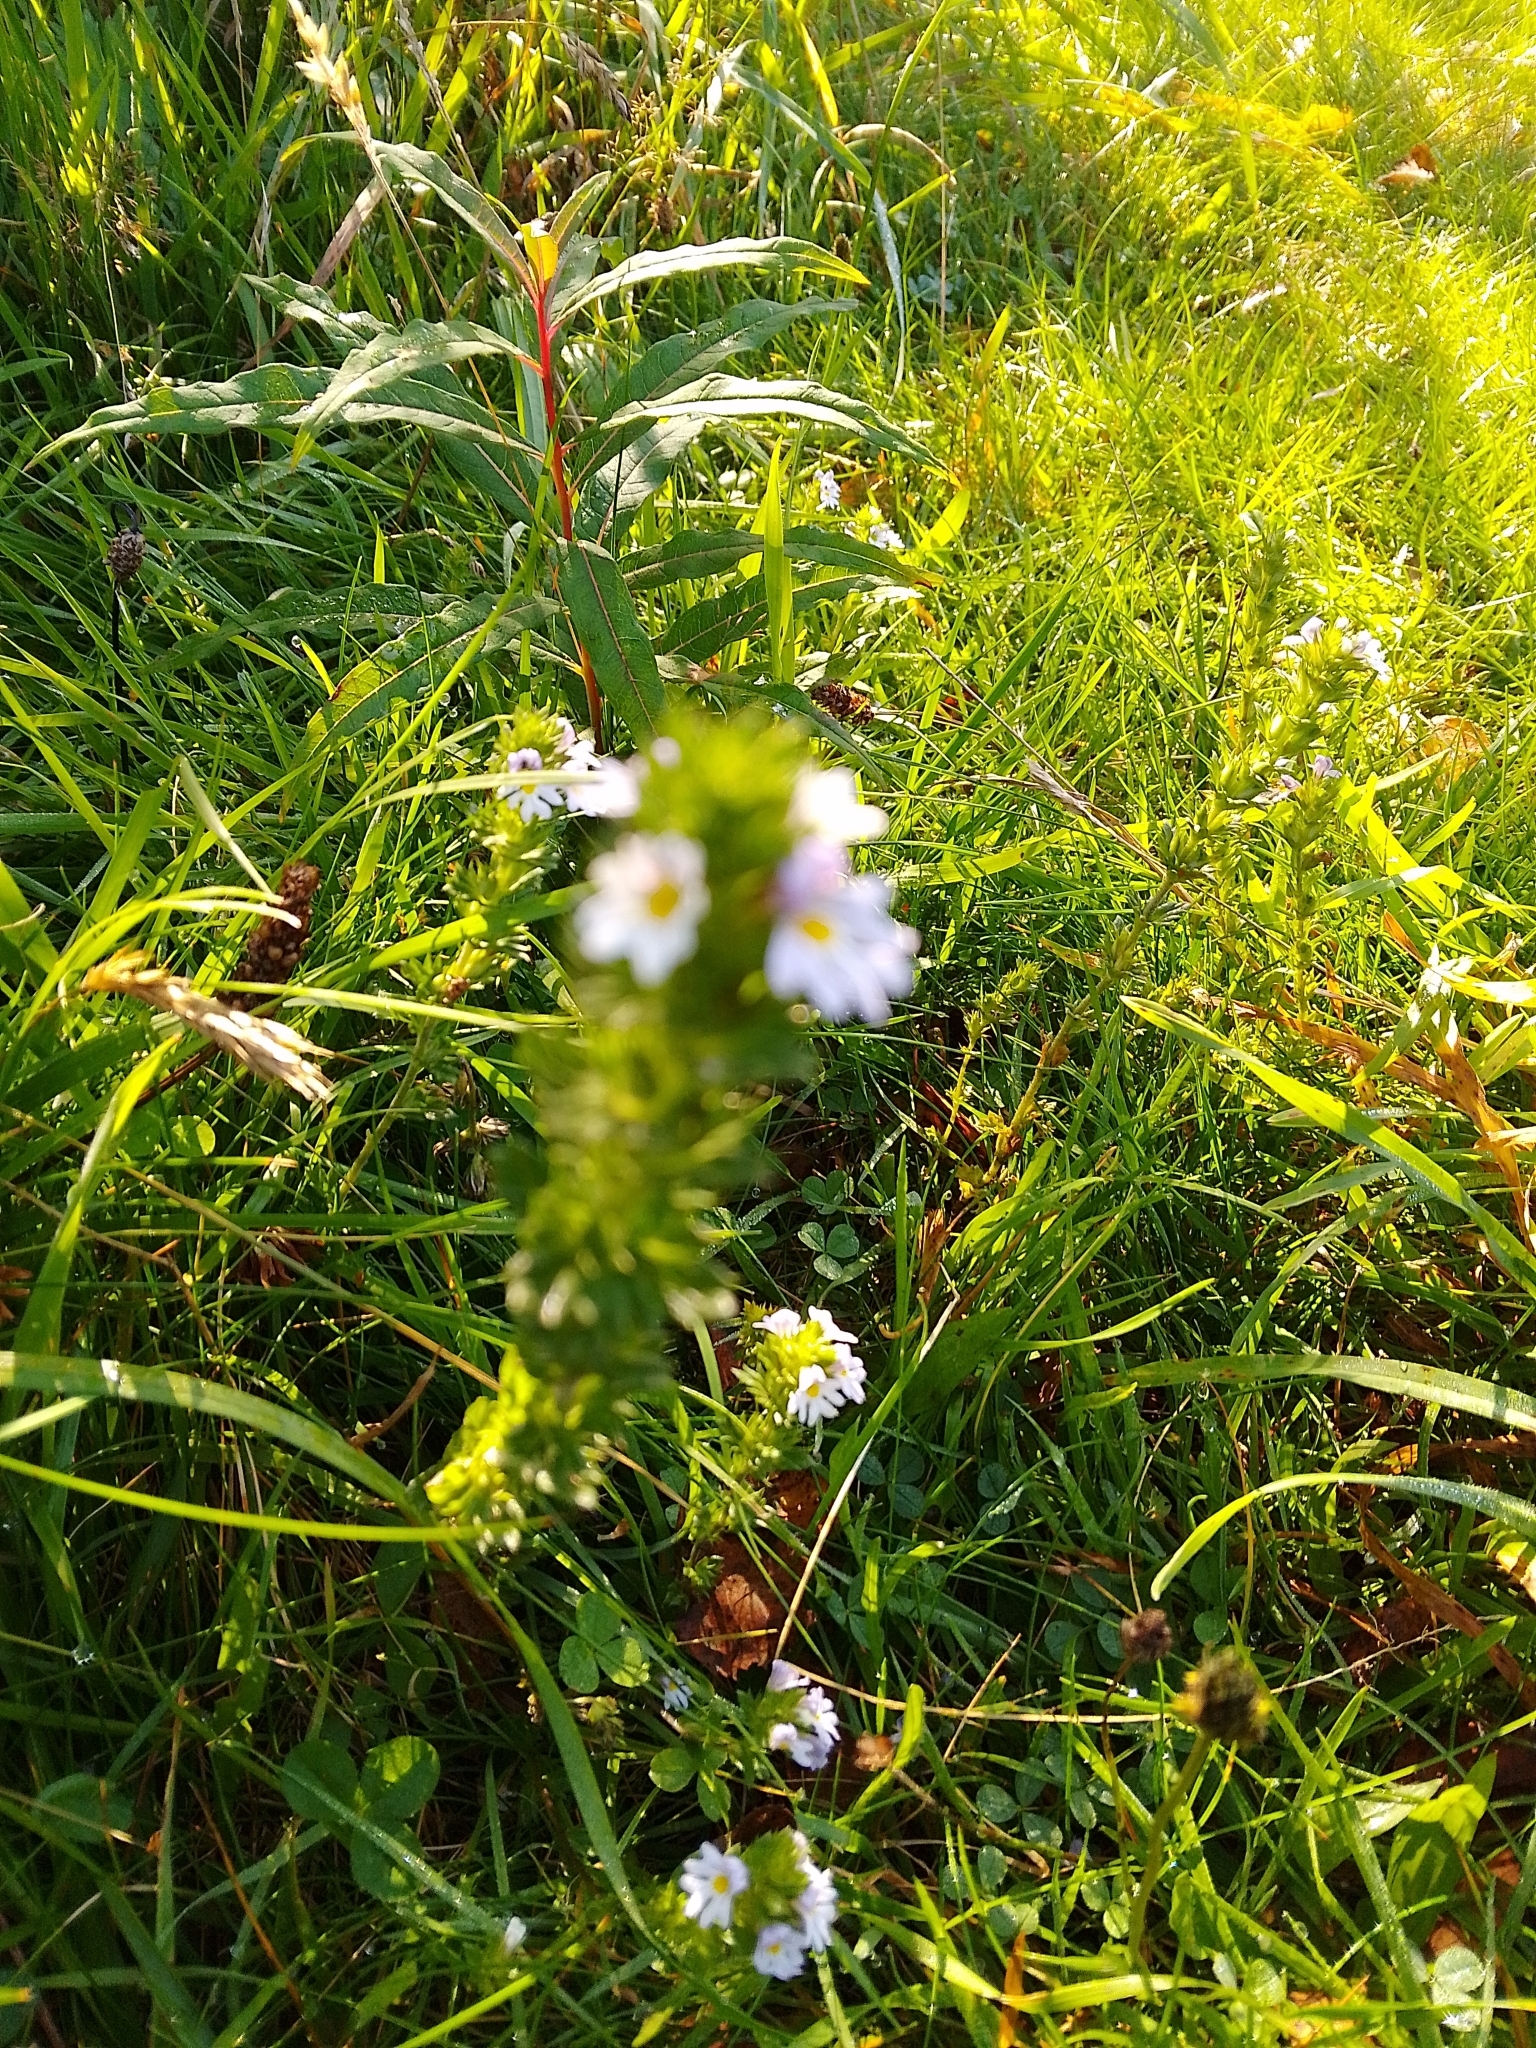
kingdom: Plantae
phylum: Tracheophyta
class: Magnoliopsida
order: Lamiales
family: Orobanchaceae
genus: Euphrasia
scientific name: Euphrasia nemorosa
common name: Common eyebright
